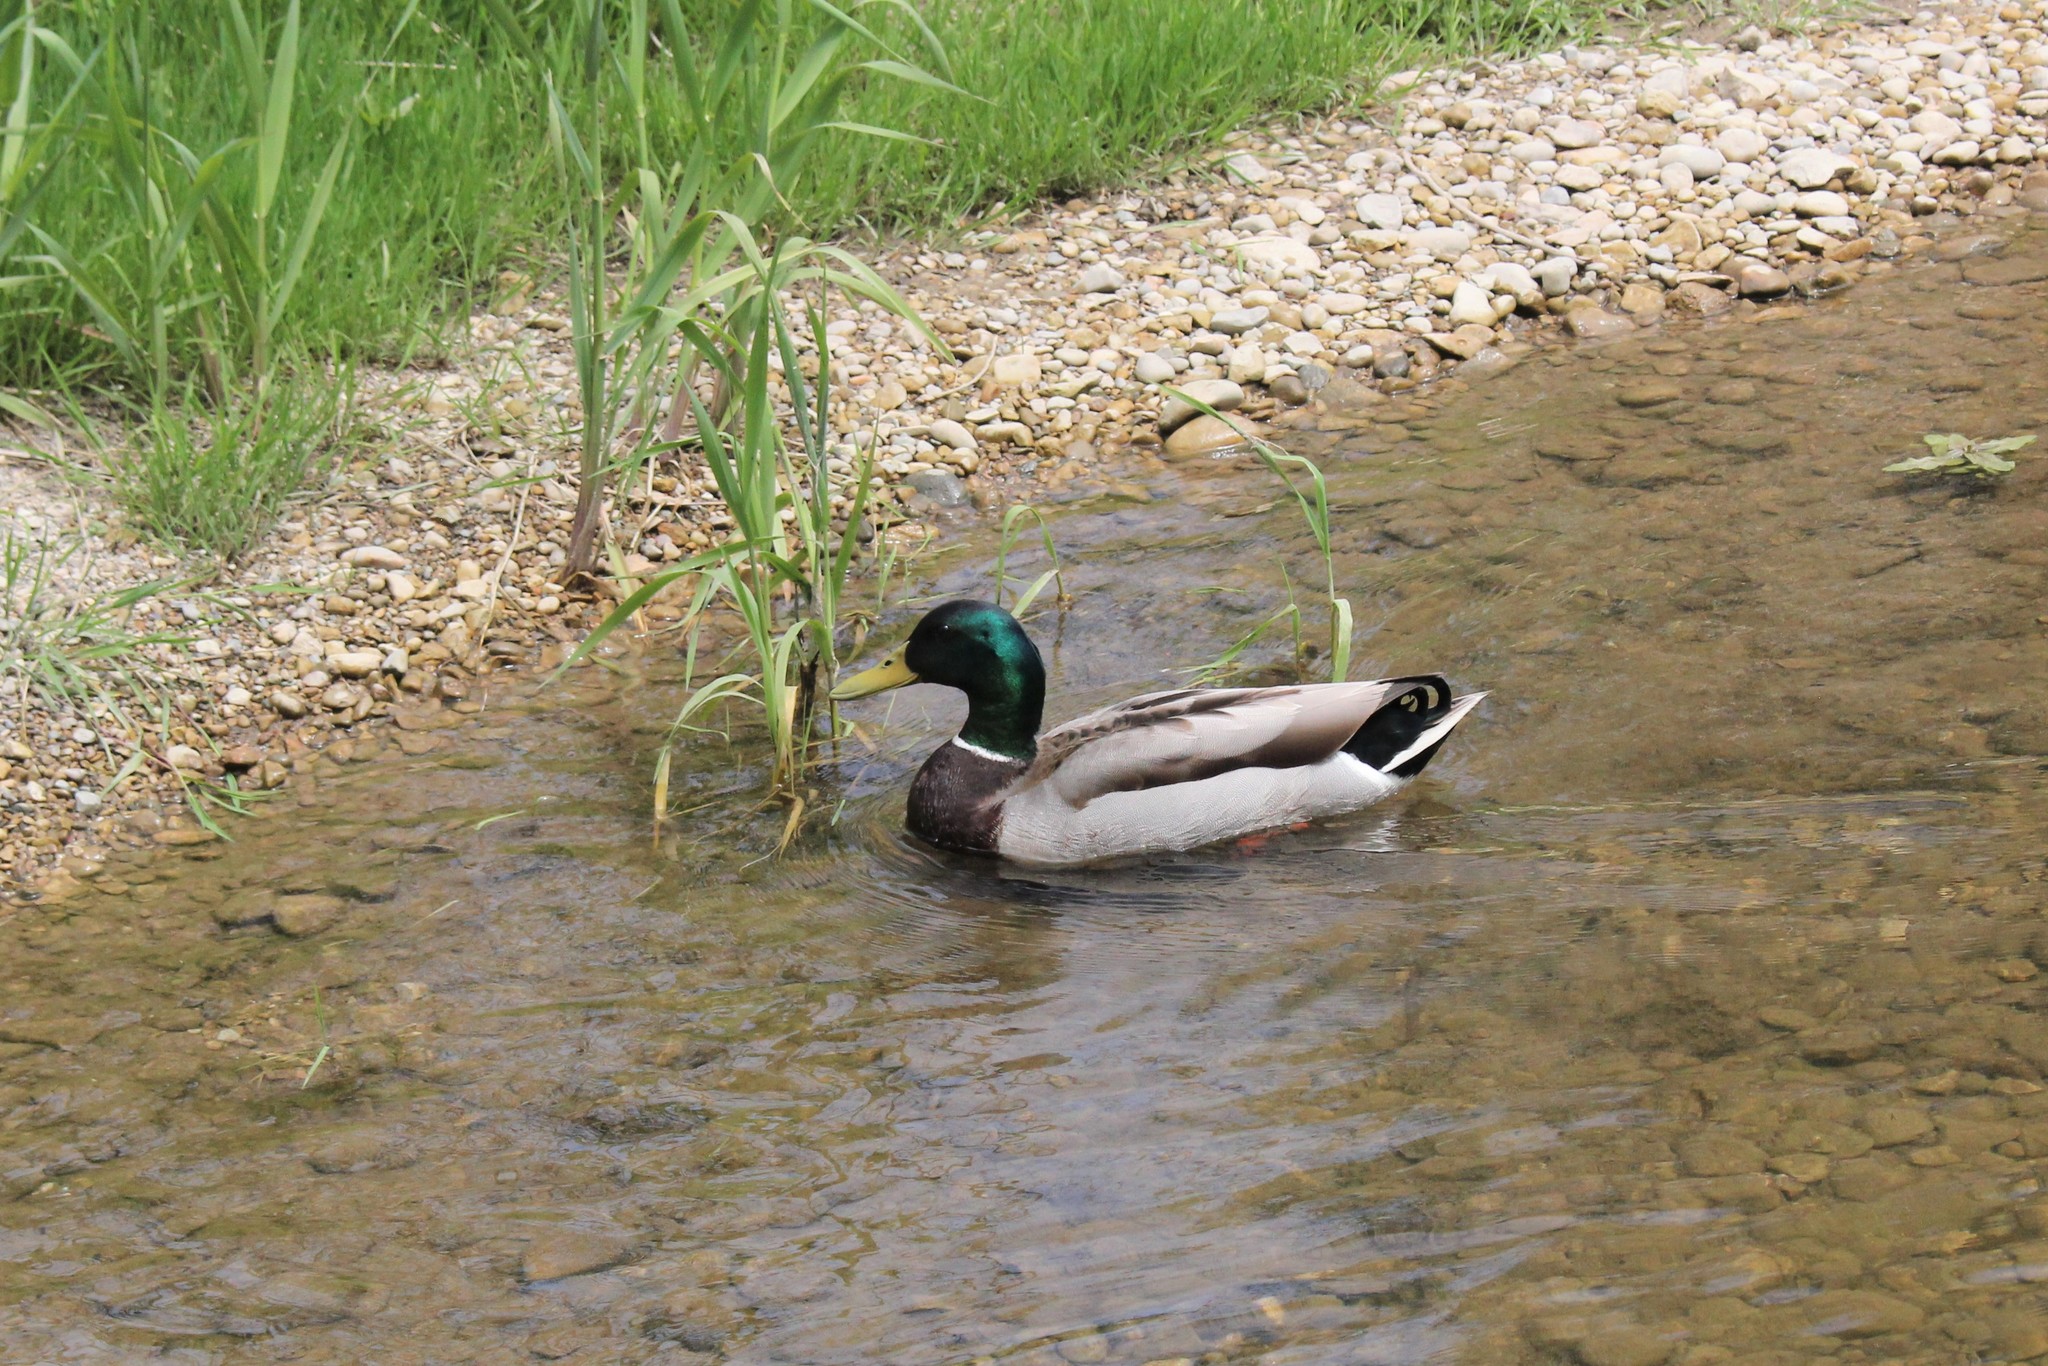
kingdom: Animalia
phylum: Chordata
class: Aves
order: Anseriformes
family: Anatidae
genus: Anas
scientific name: Anas platyrhynchos
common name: Mallard
